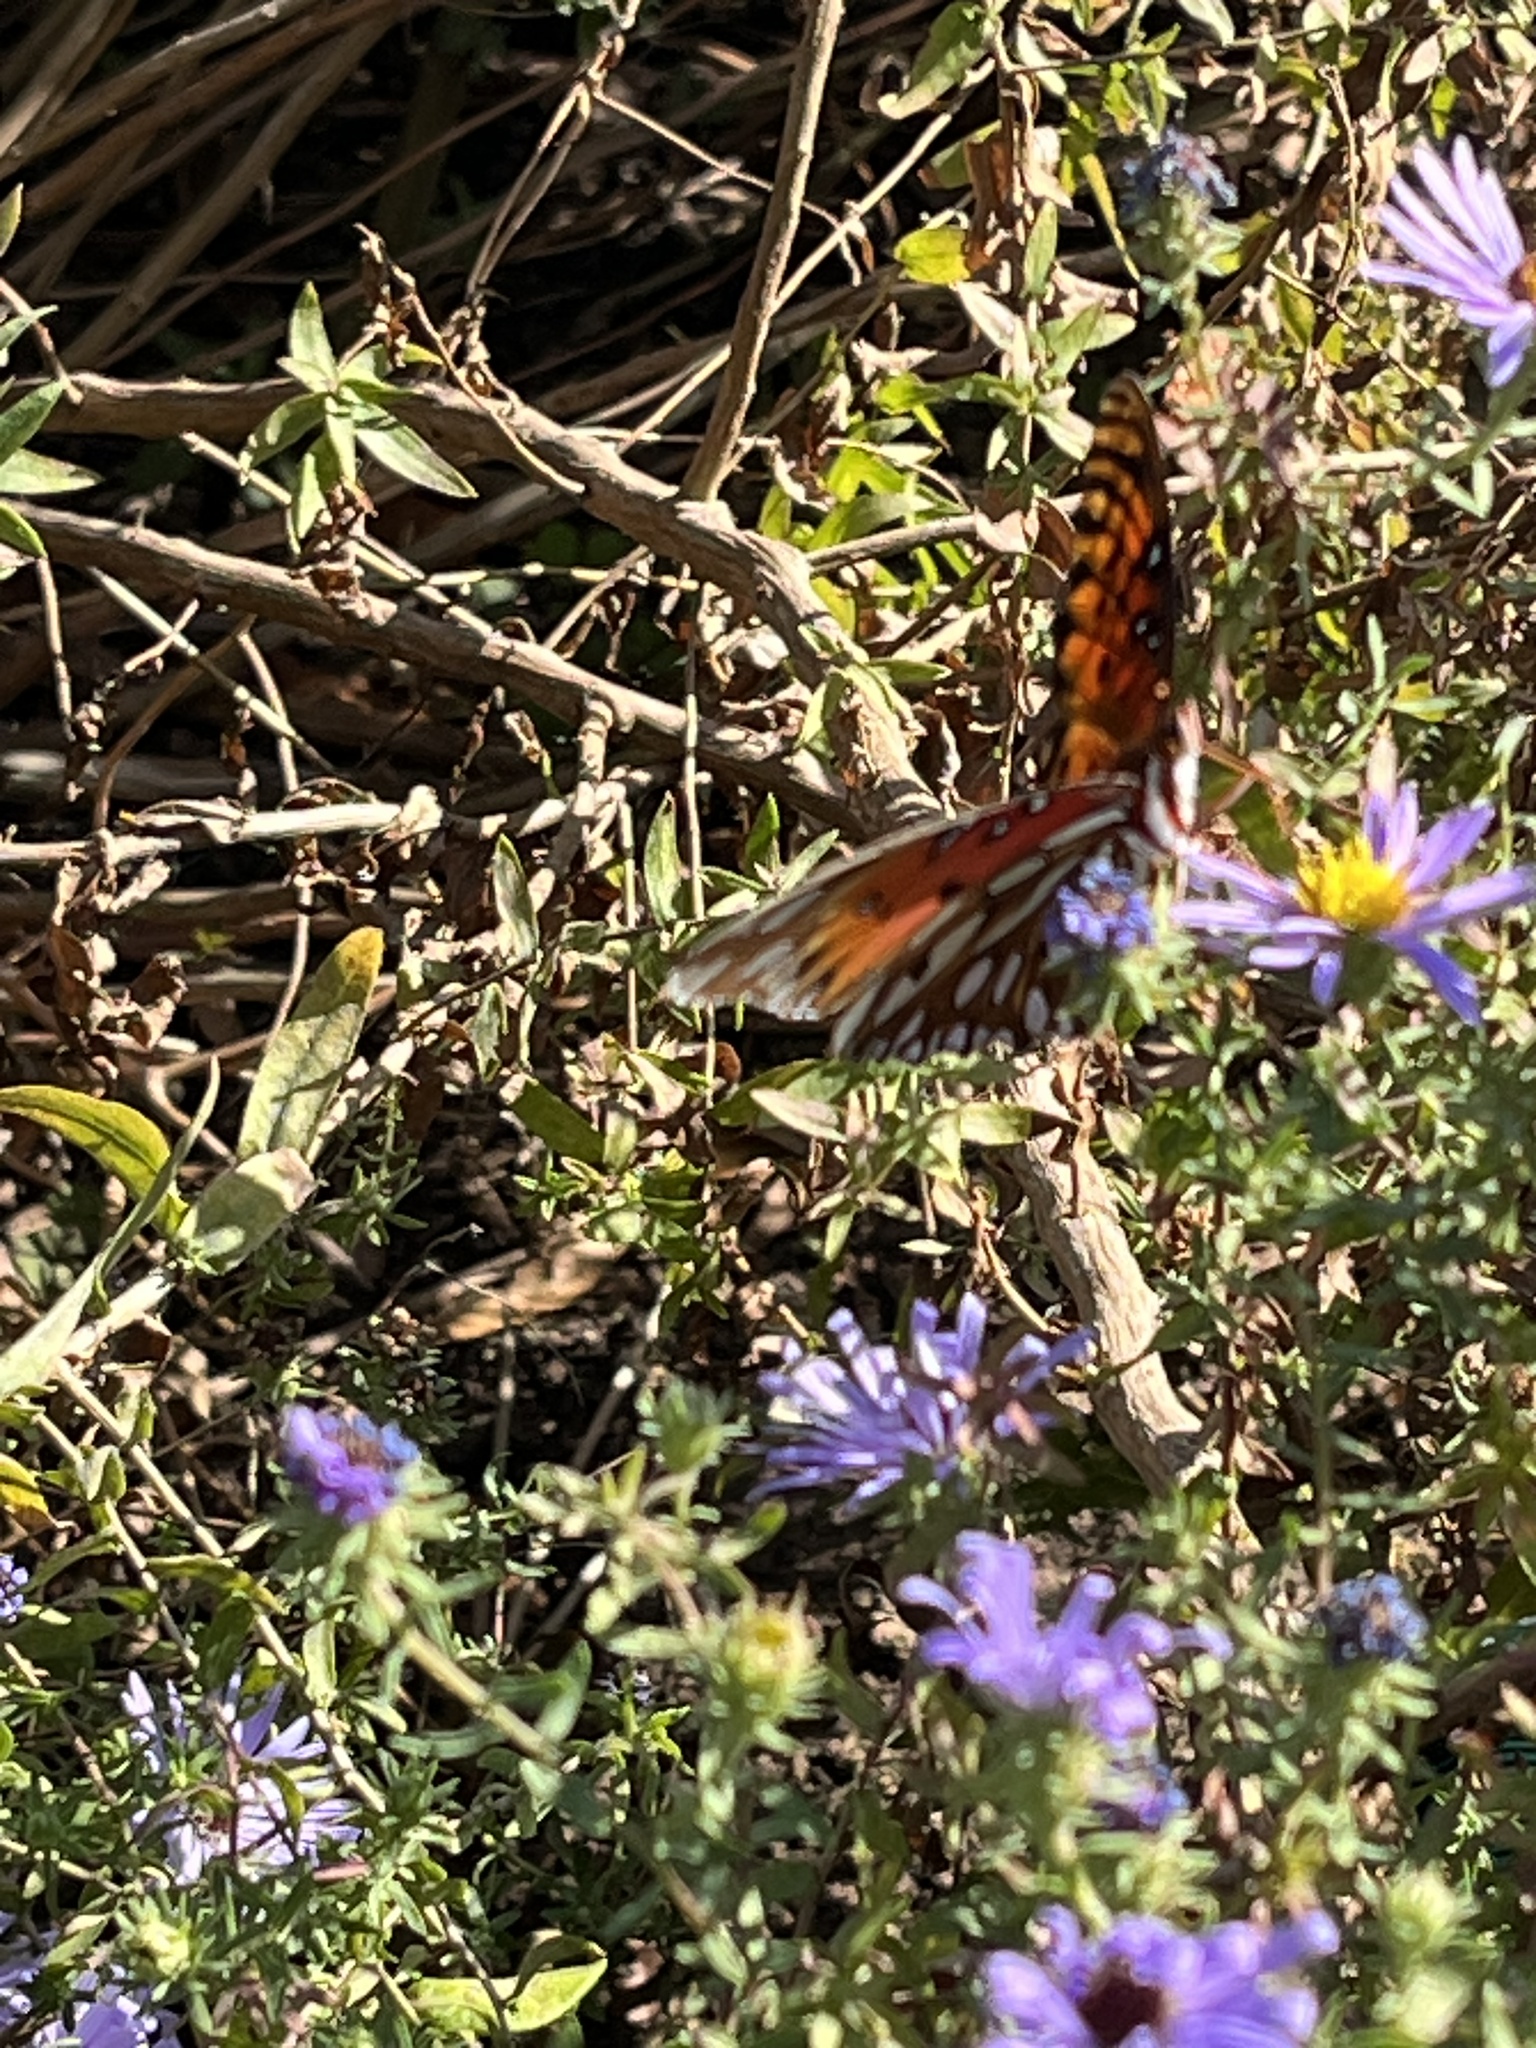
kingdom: Animalia
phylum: Arthropoda
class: Insecta
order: Lepidoptera
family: Nymphalidae
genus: Dione
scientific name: Dione vanillae
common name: Gulf fritillary
